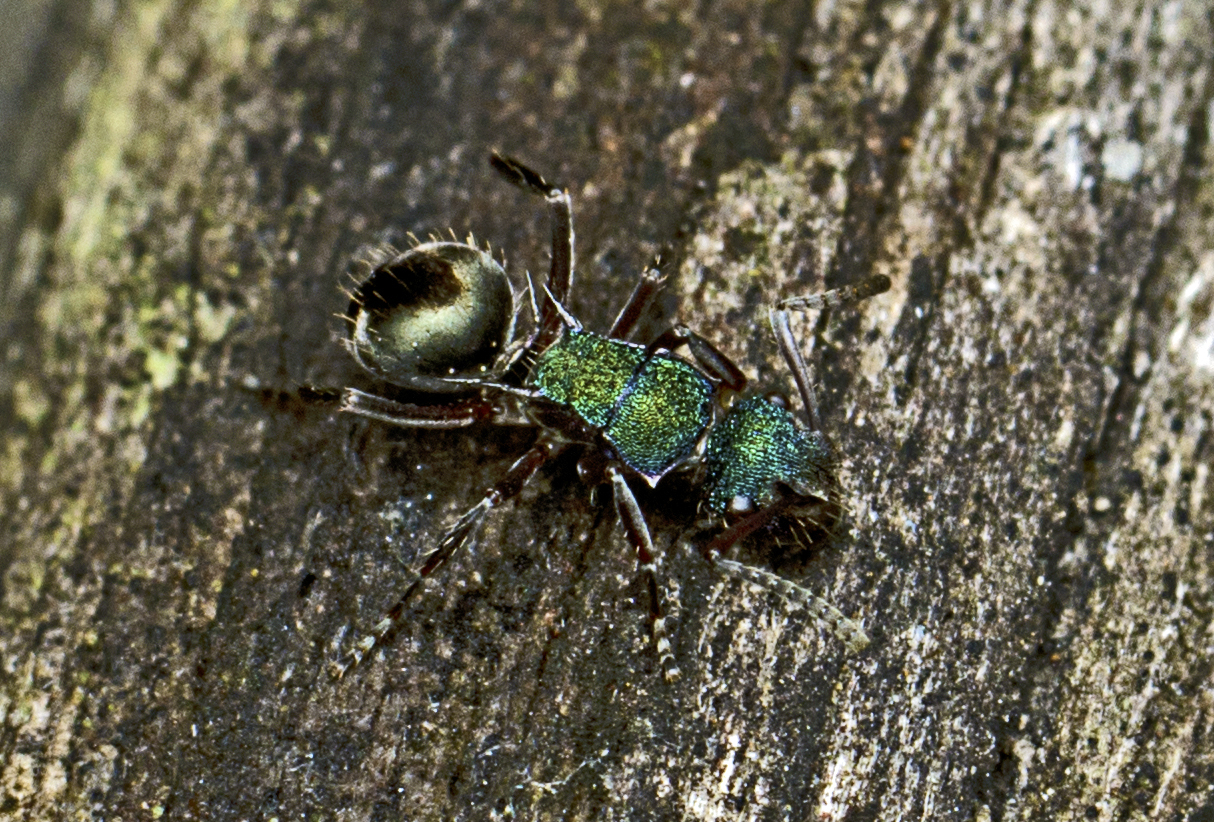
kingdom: Animalia
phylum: Arthropoda
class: Insecta
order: Hymenoptera
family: Formicidae
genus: Polyrhachis
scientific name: Polyrhachis hookeri
